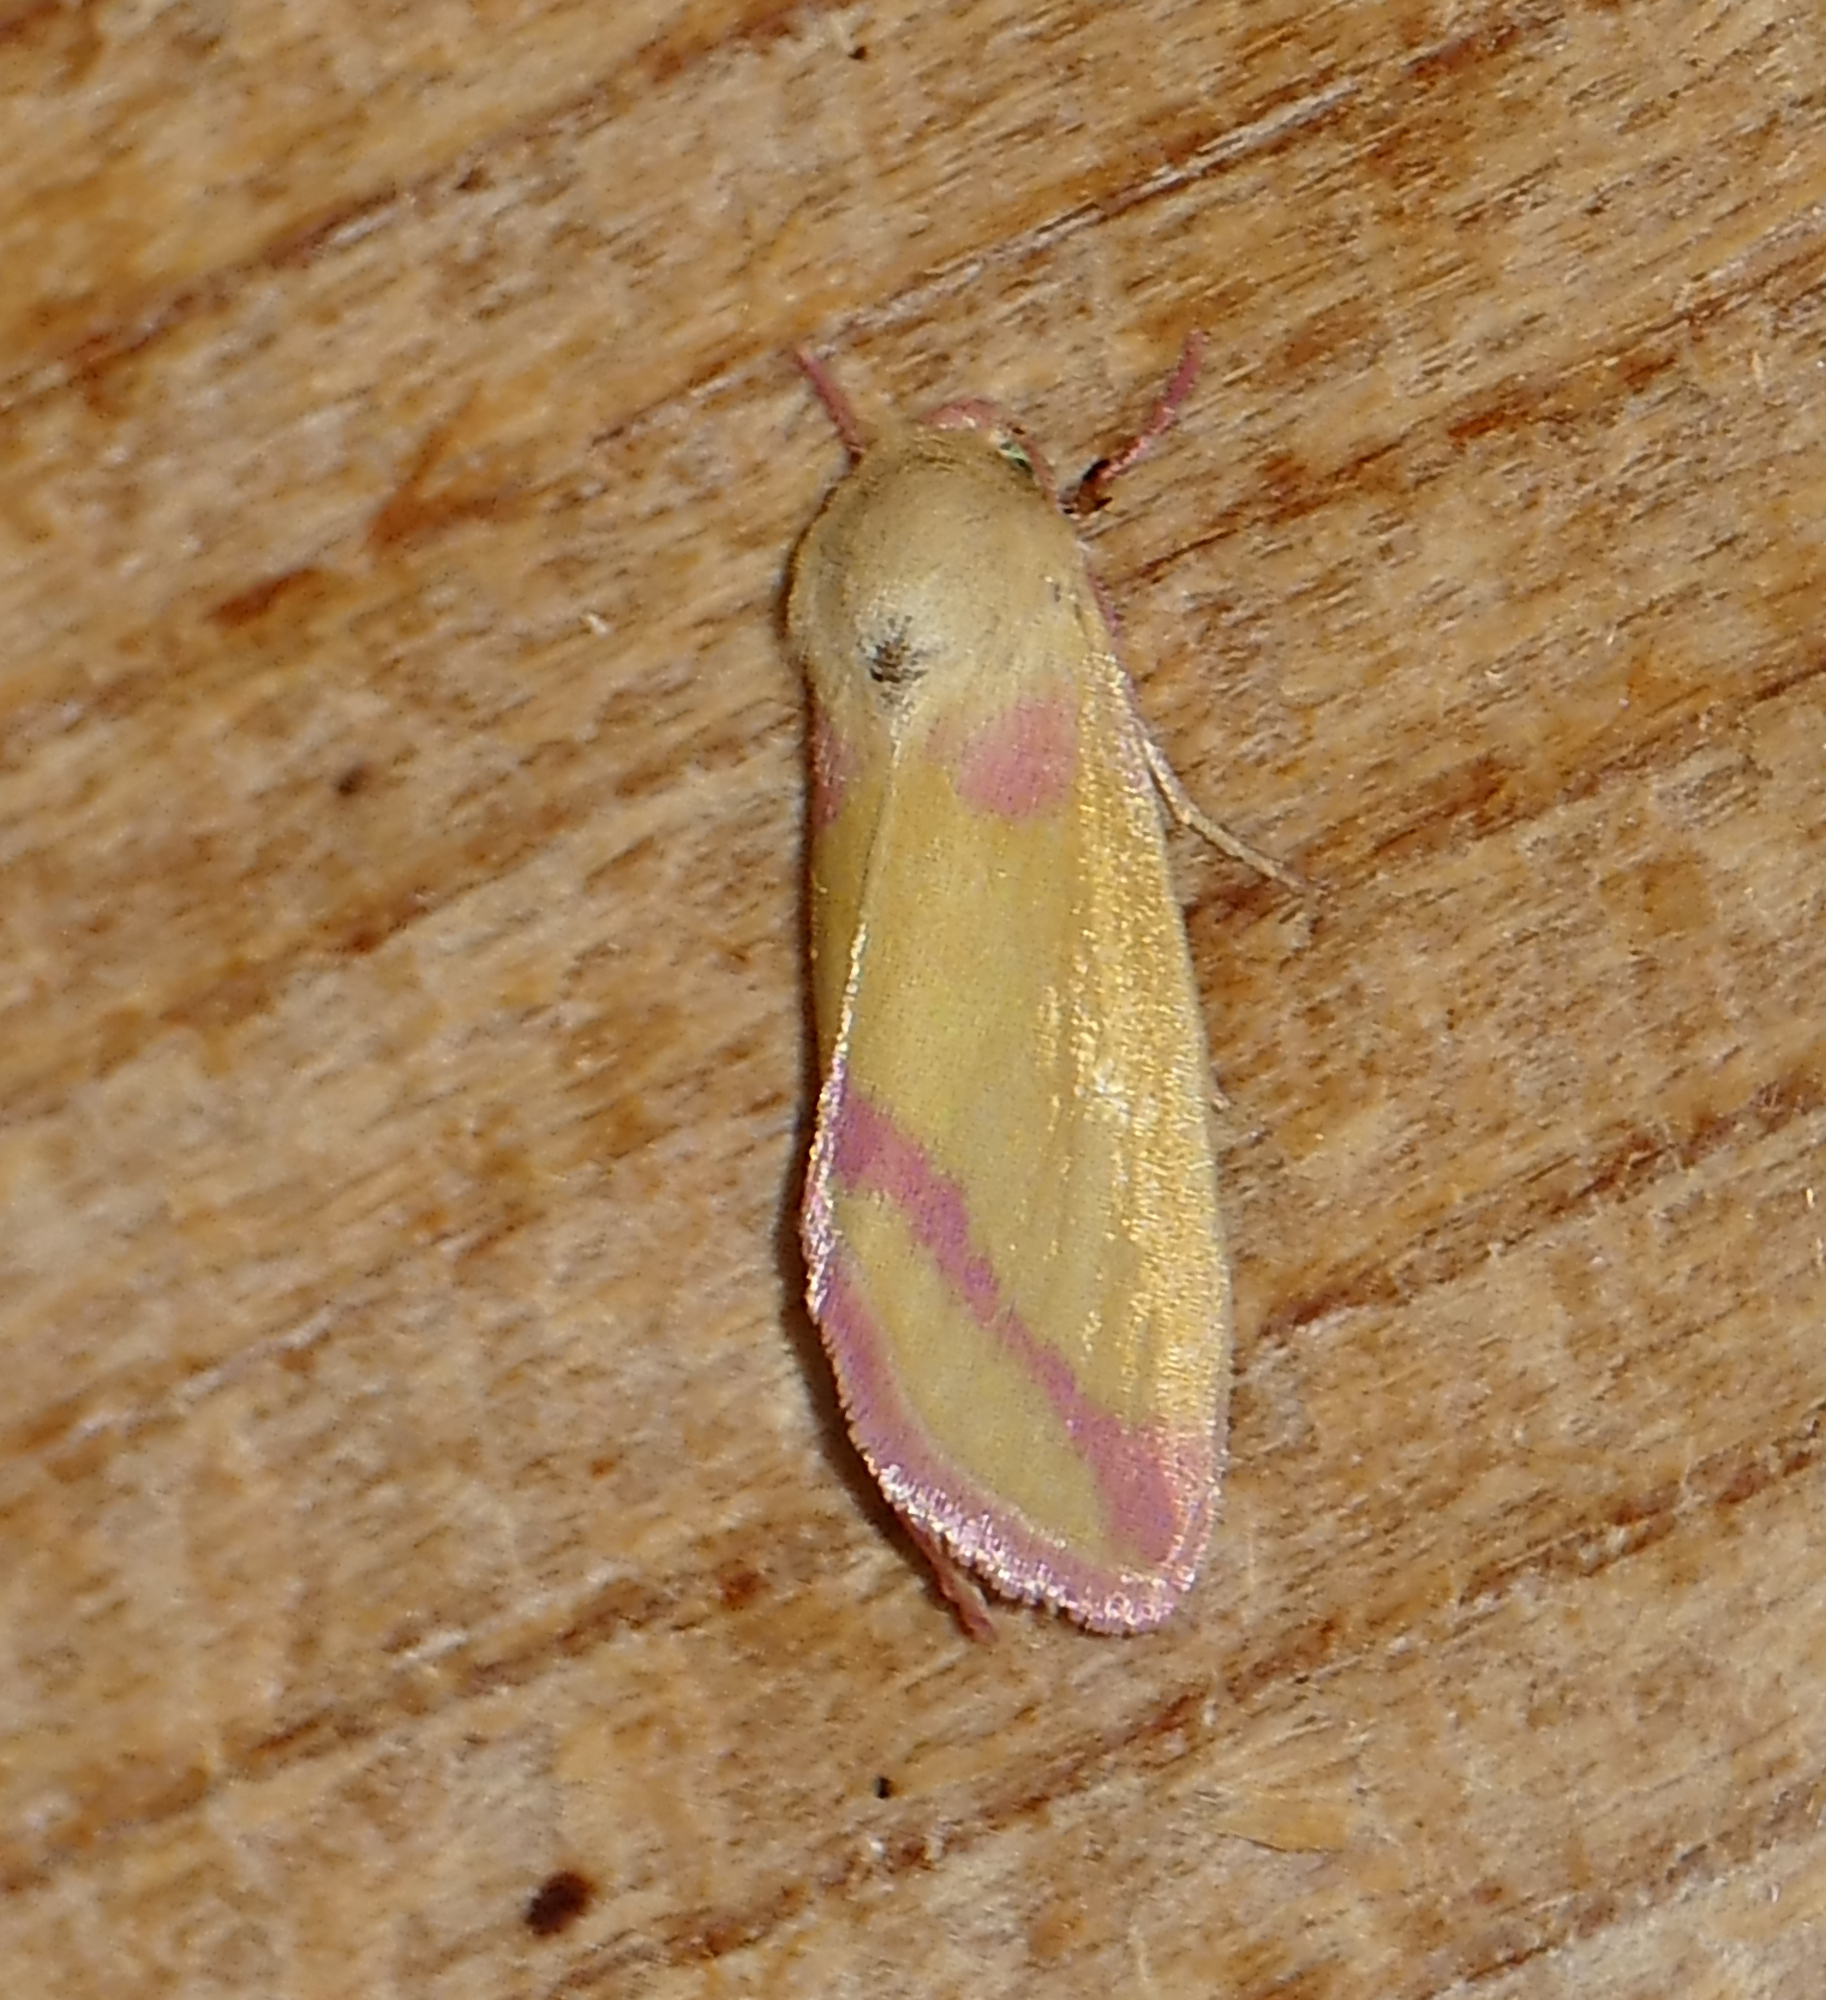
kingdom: Animalia
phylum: Arthropoda
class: Insecta
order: Lepidoptera
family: Noctuidae
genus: Heliocheilus
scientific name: Heliocheilus toralis
